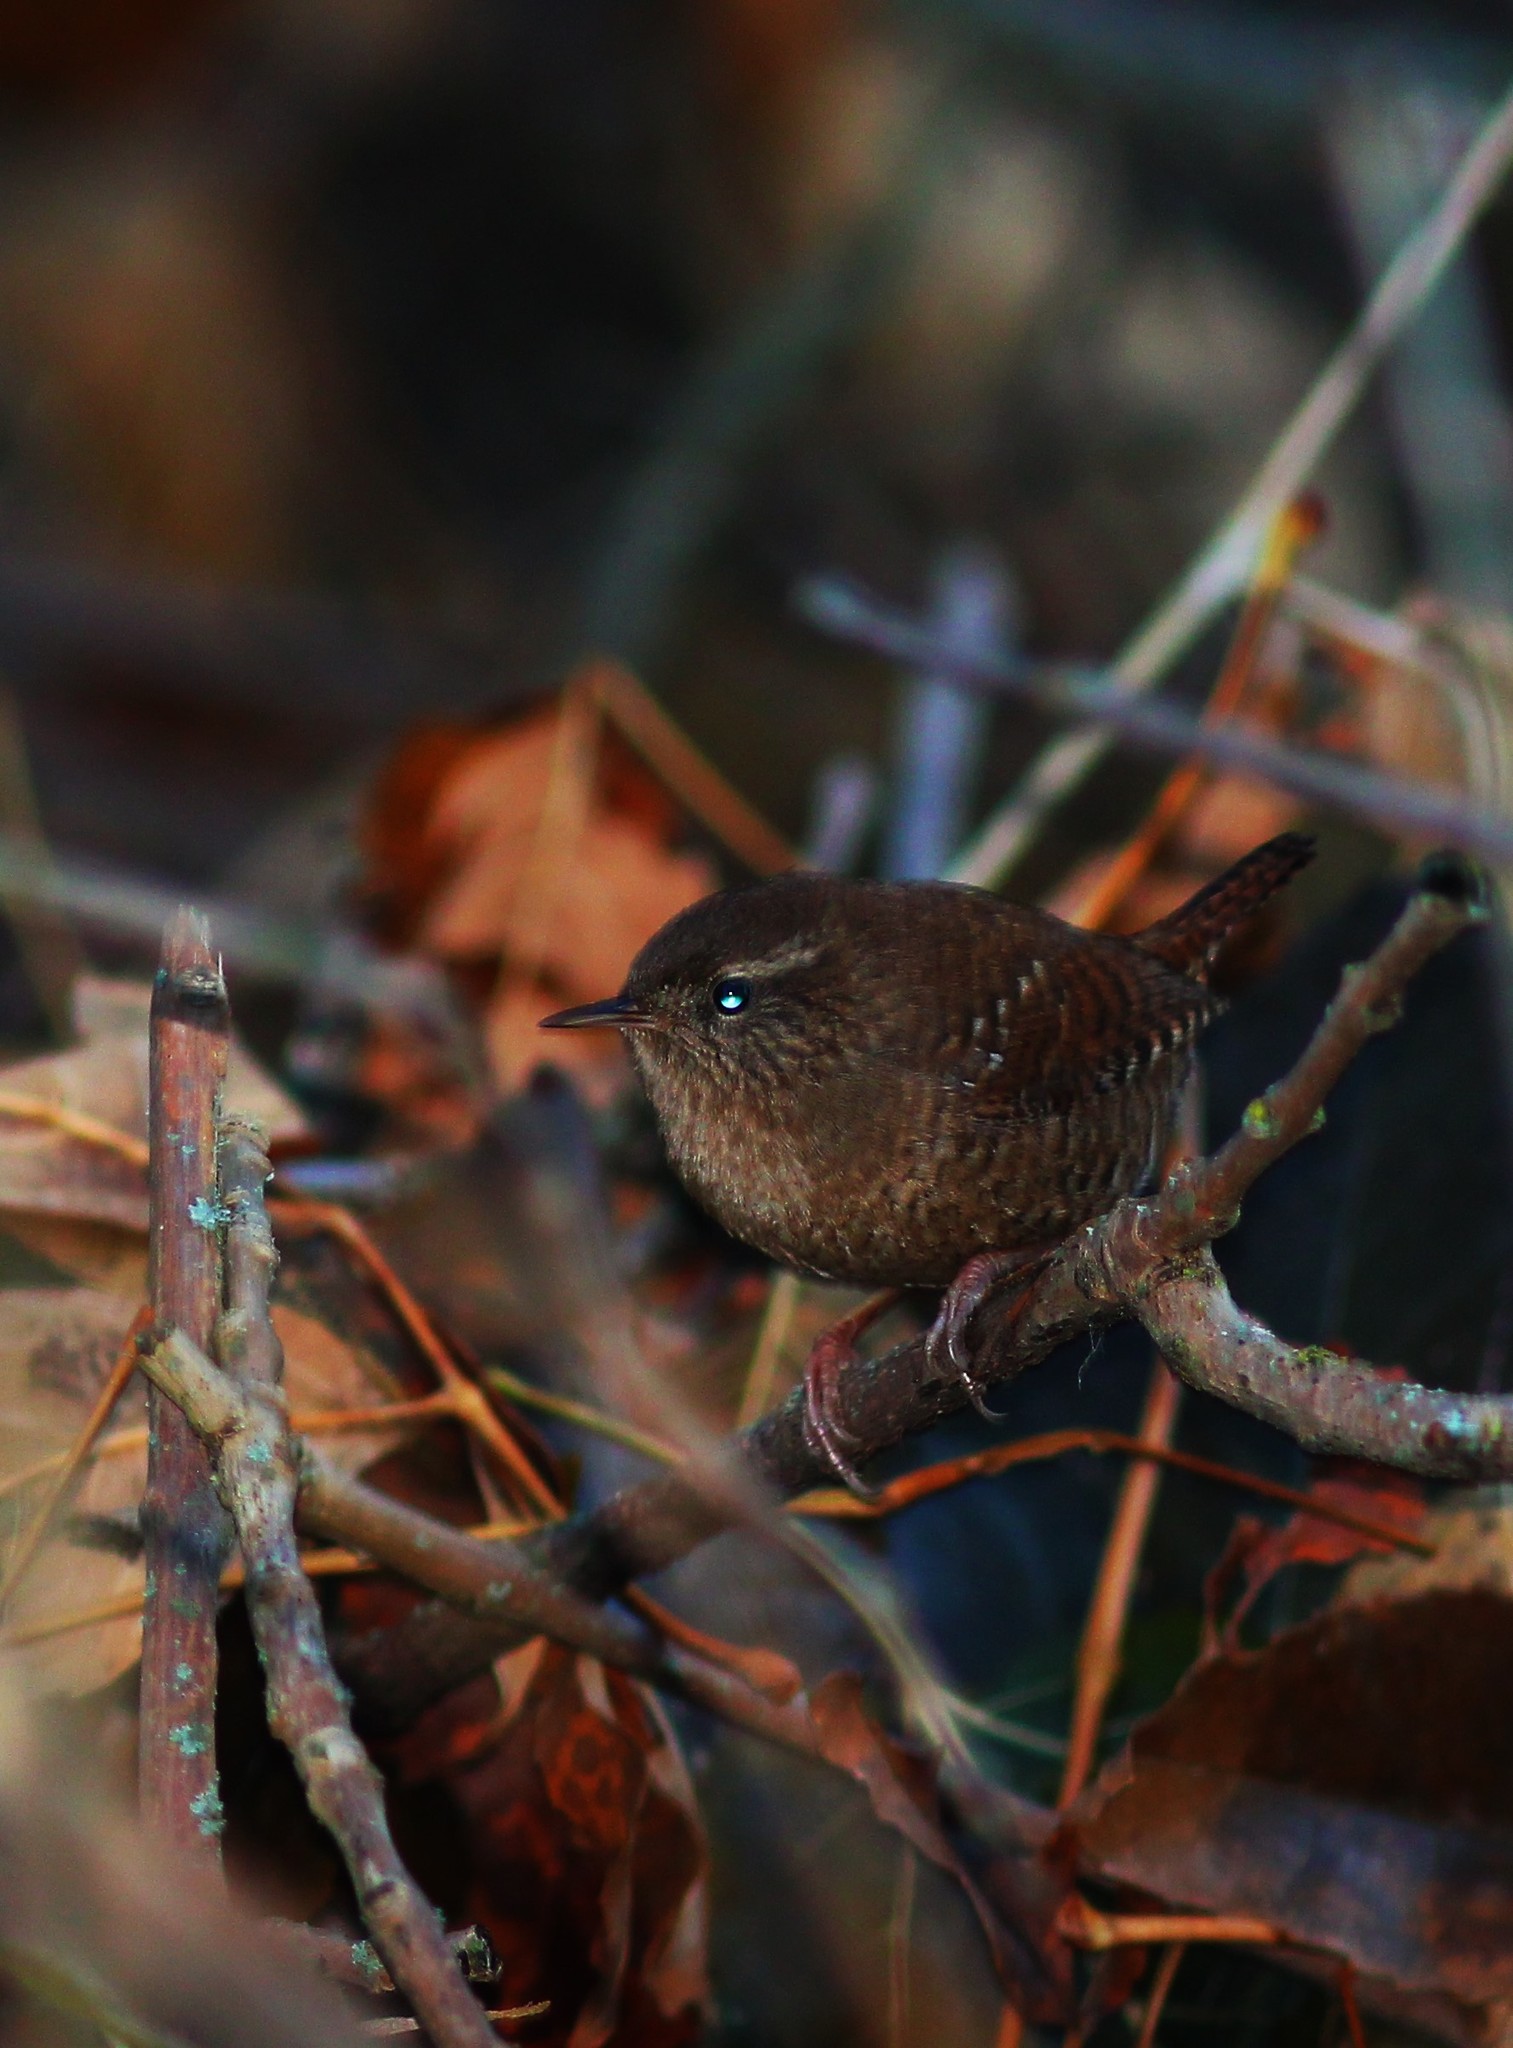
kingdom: Animalia
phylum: Chordata
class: Aves
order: Passeriformes
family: Troglodytidae
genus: Troglodytes
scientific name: Troglodytes troglodytes
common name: Eurasian wren
